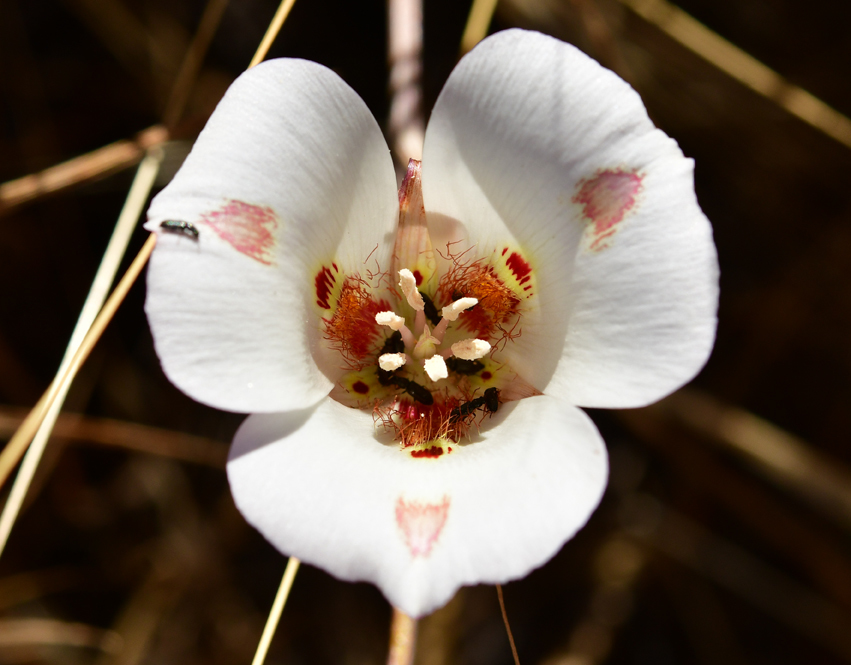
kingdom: Plantae
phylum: Tracheophyta
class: Liliopsida
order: Liliales
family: Liliaceae
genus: Calochortus
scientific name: Calochortus venustus
